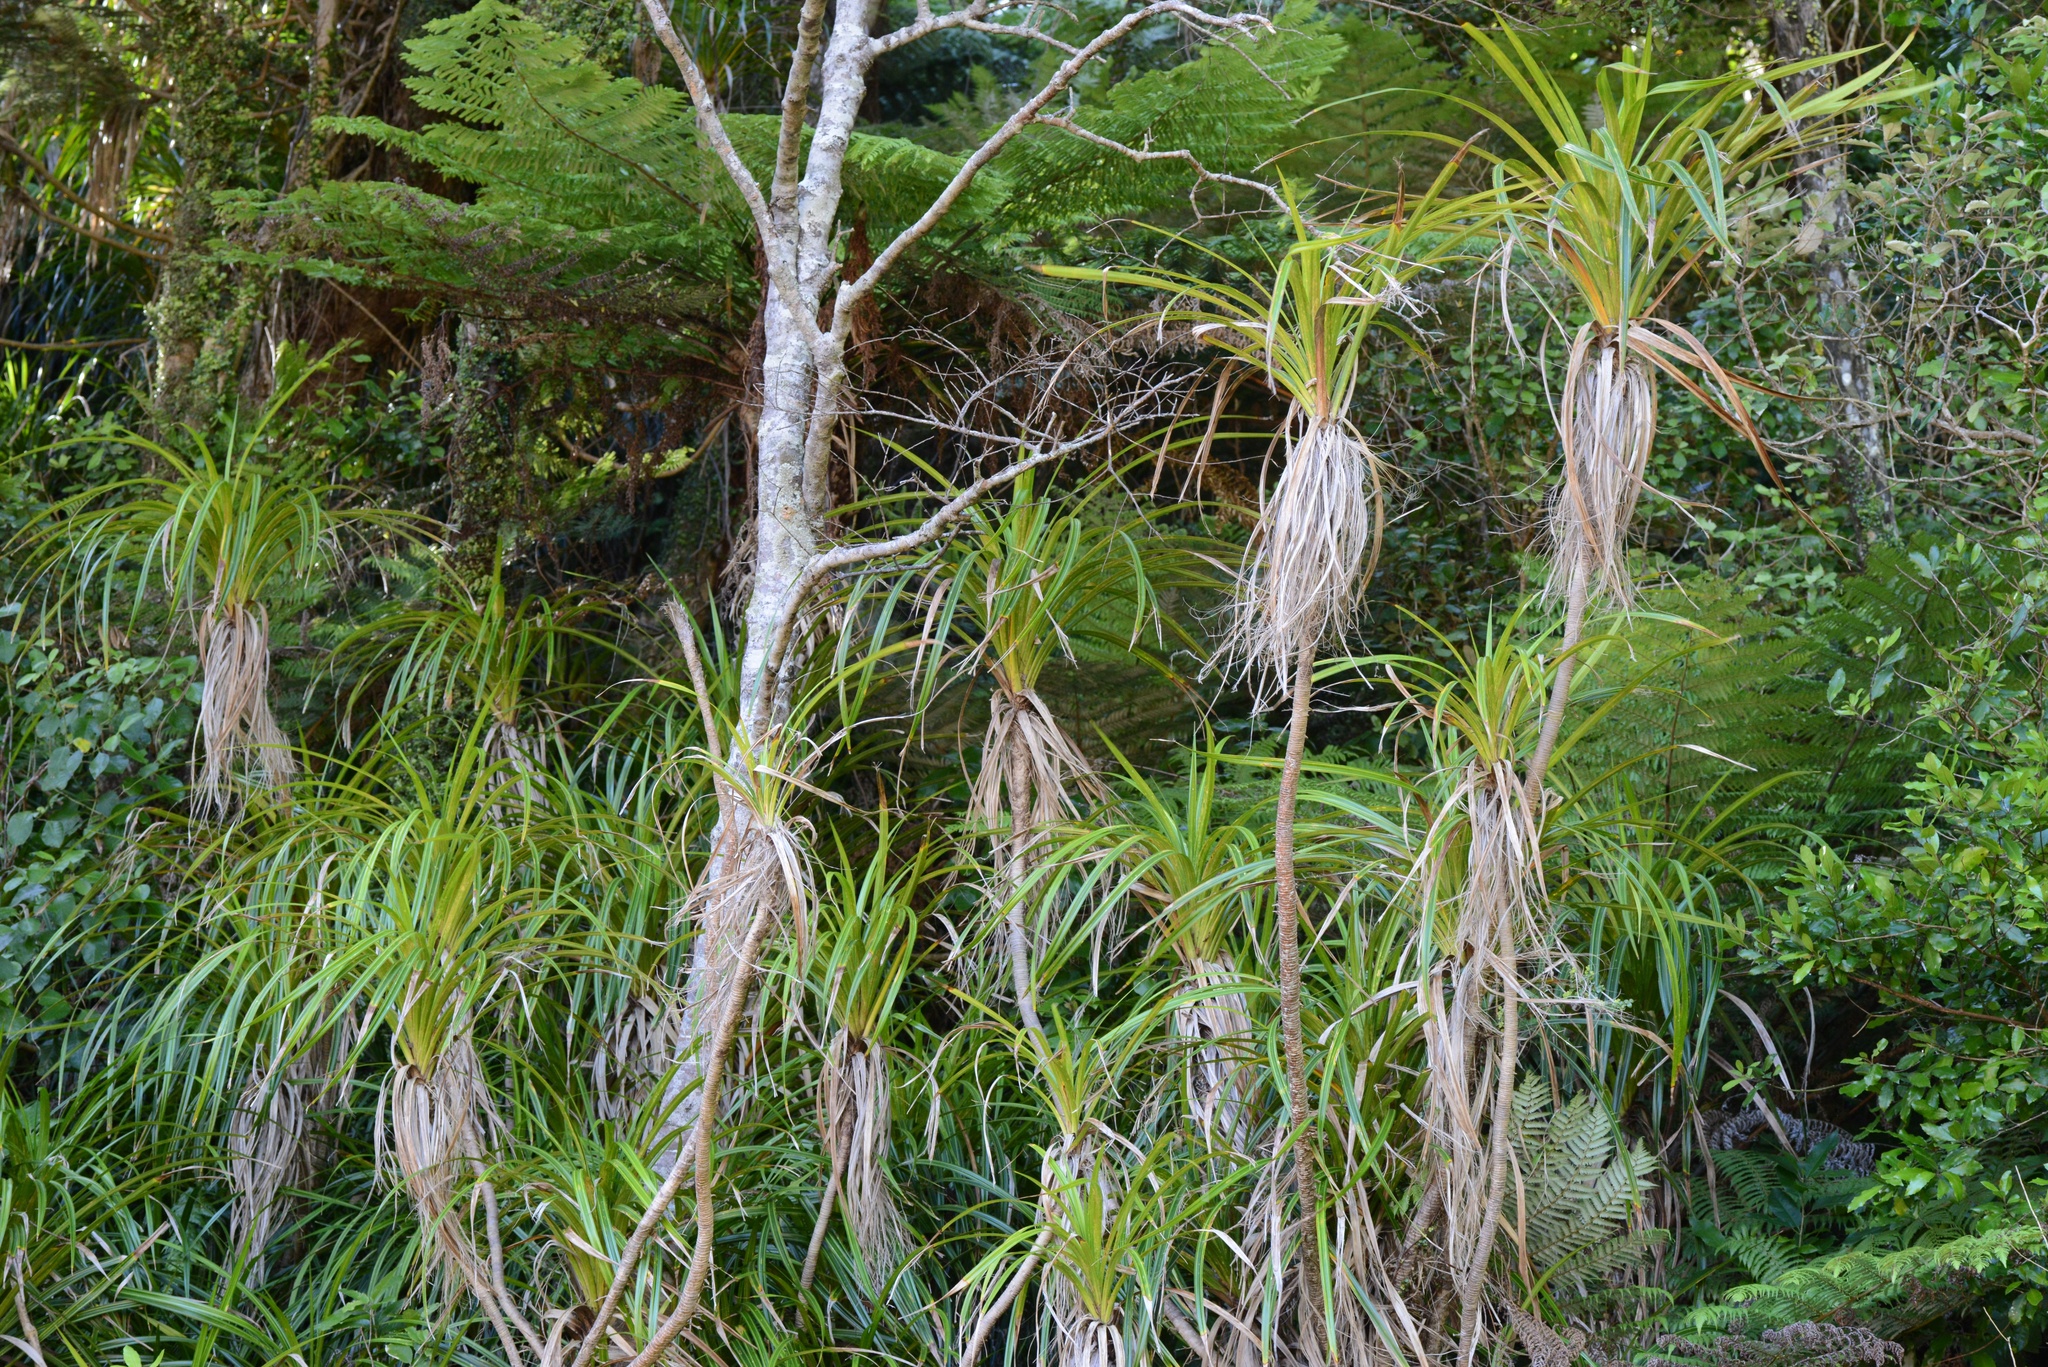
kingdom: Plantae
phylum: Tracheophyta
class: Liliopsida
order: Pandanales
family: Pandanaceae
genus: Freycinetia
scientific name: Freycinetia banksii
